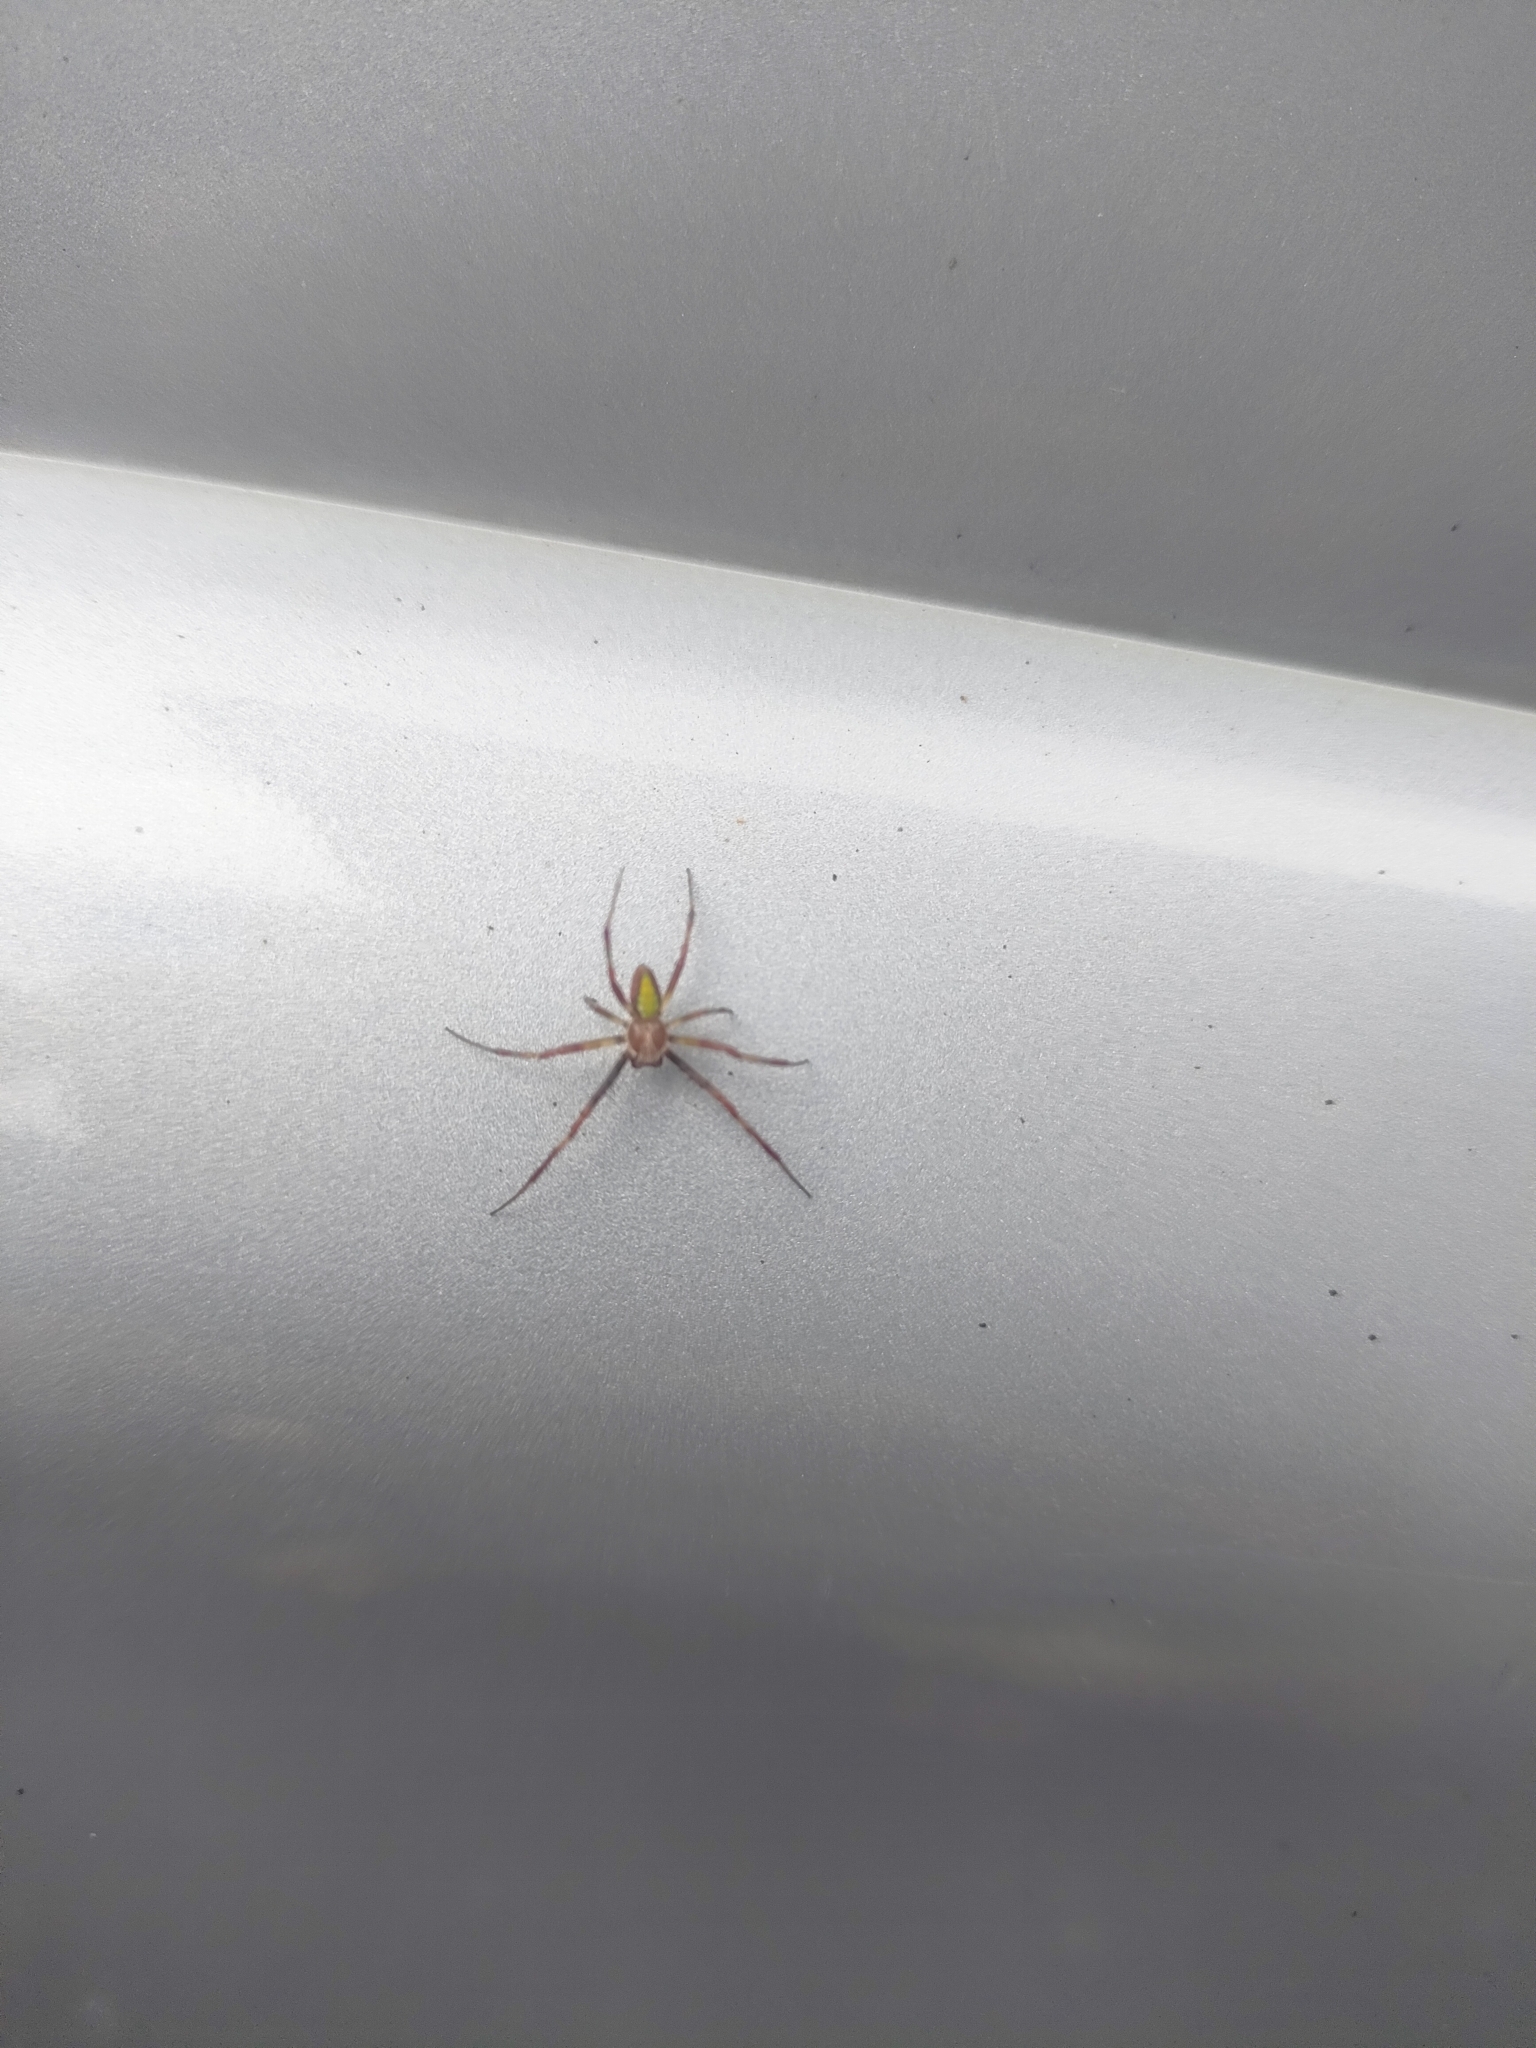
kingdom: Animalia
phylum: Arthropoda
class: Arachnida
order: Araneae
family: Araneidae
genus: Colaranea
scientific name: Colaranea viriditas
